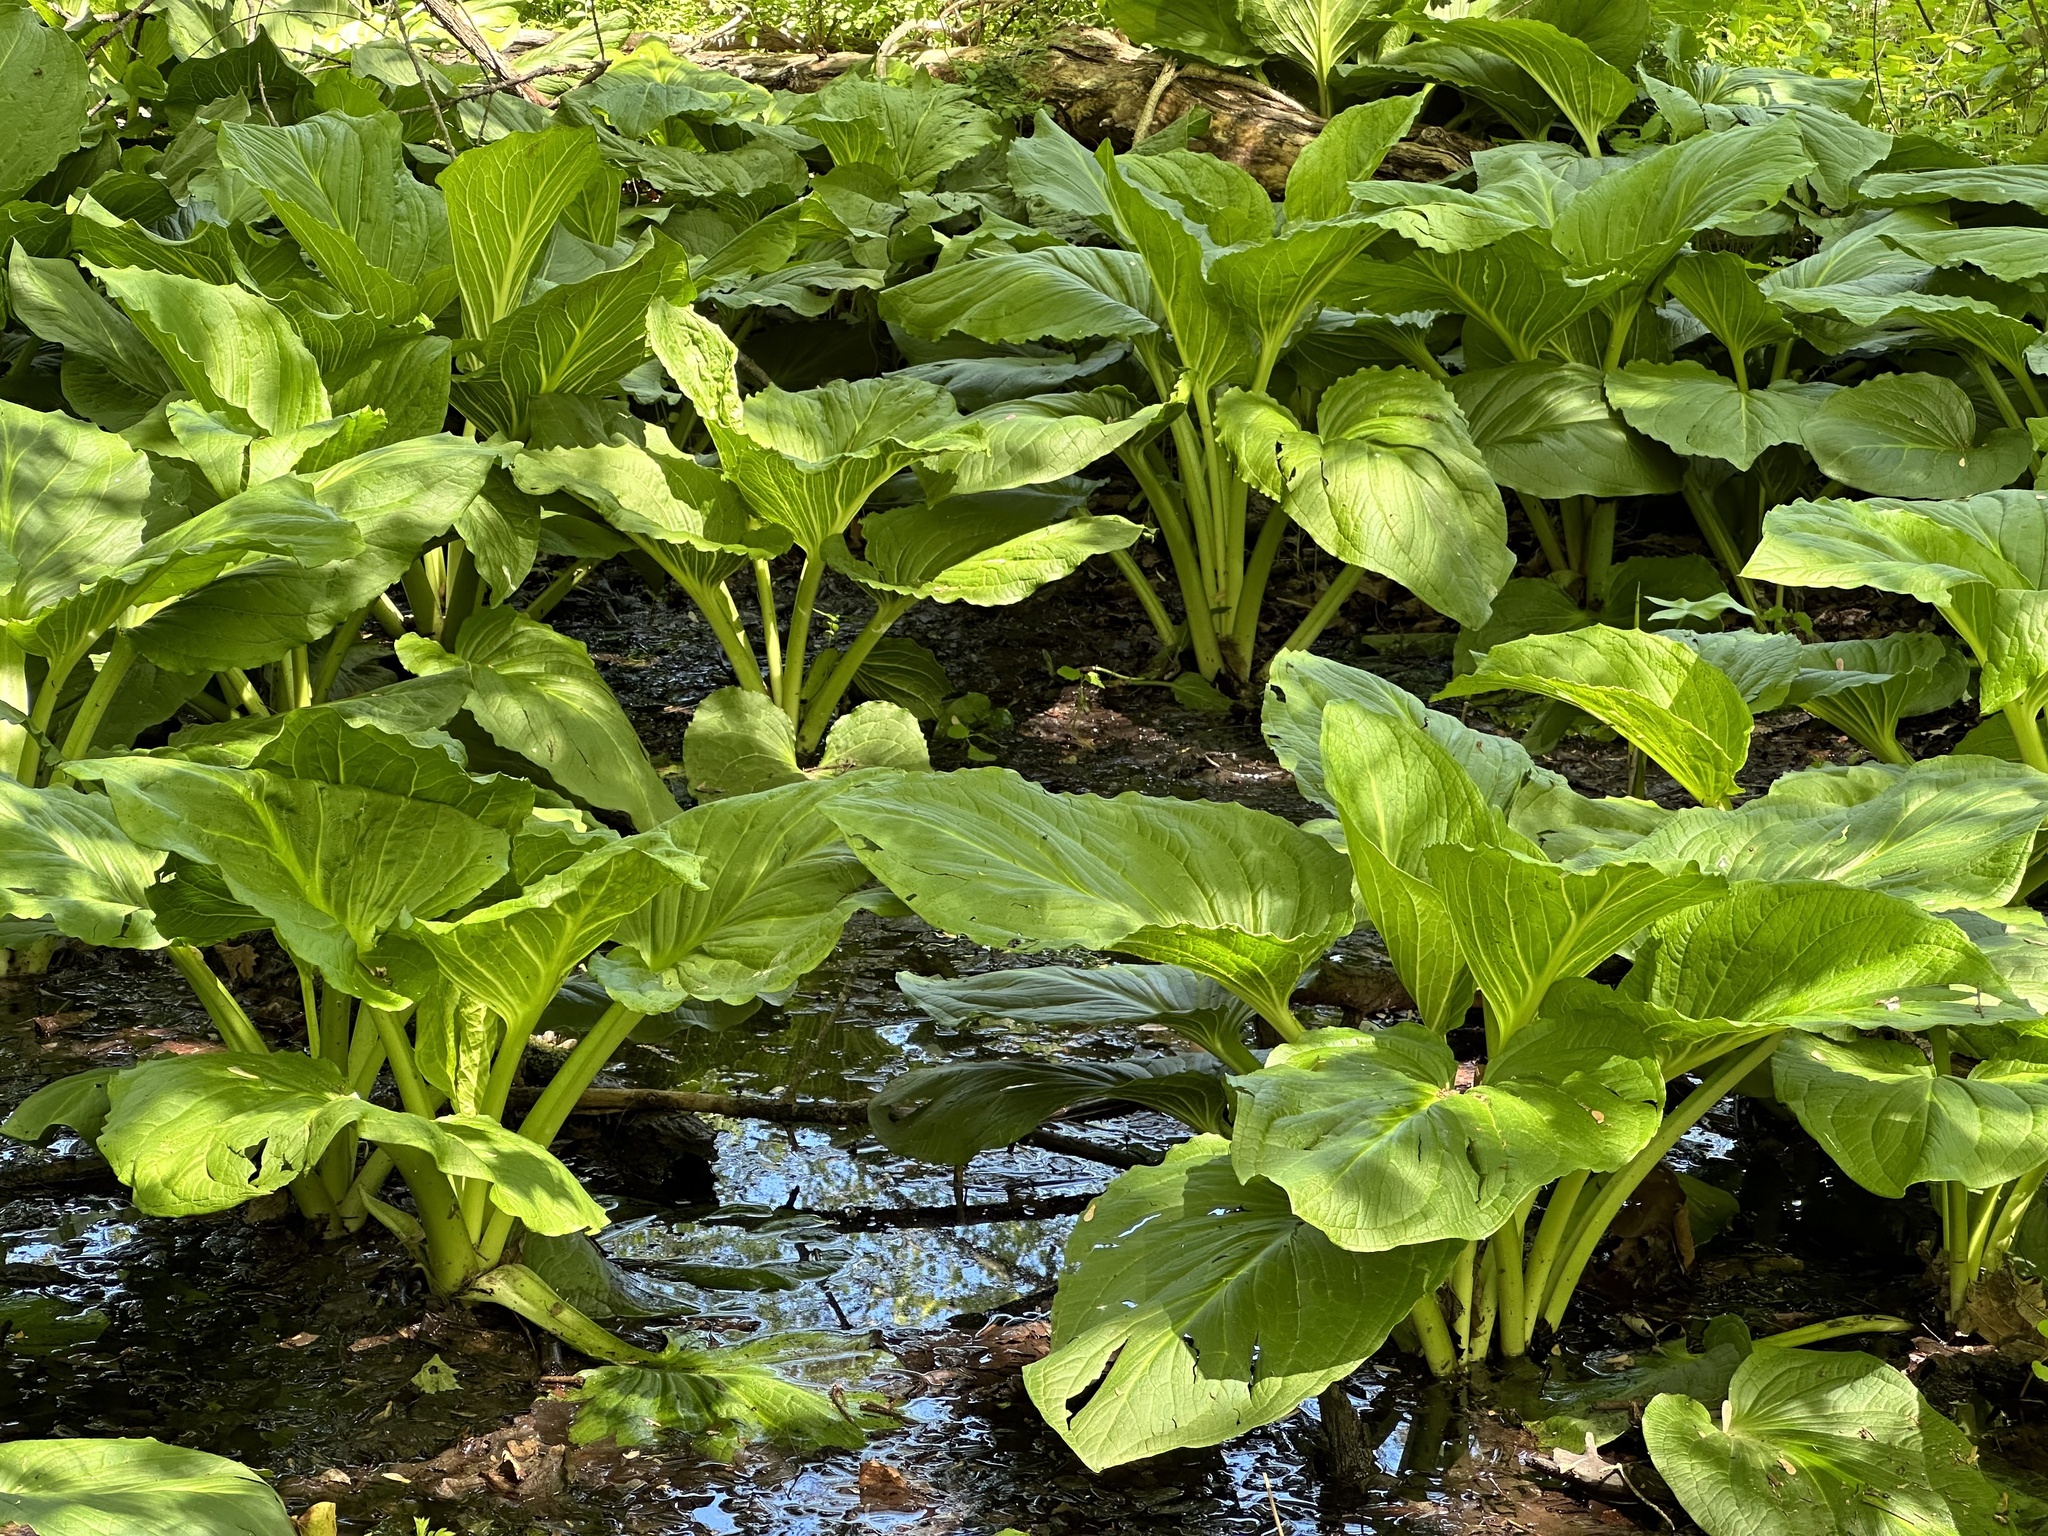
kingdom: Plantae
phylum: Tracheophyta
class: Liliopsida
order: Alismatales
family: Araceae
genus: Symplocarpus
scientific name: Symplocarpus foetidus
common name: Eastern skunk cabbage
